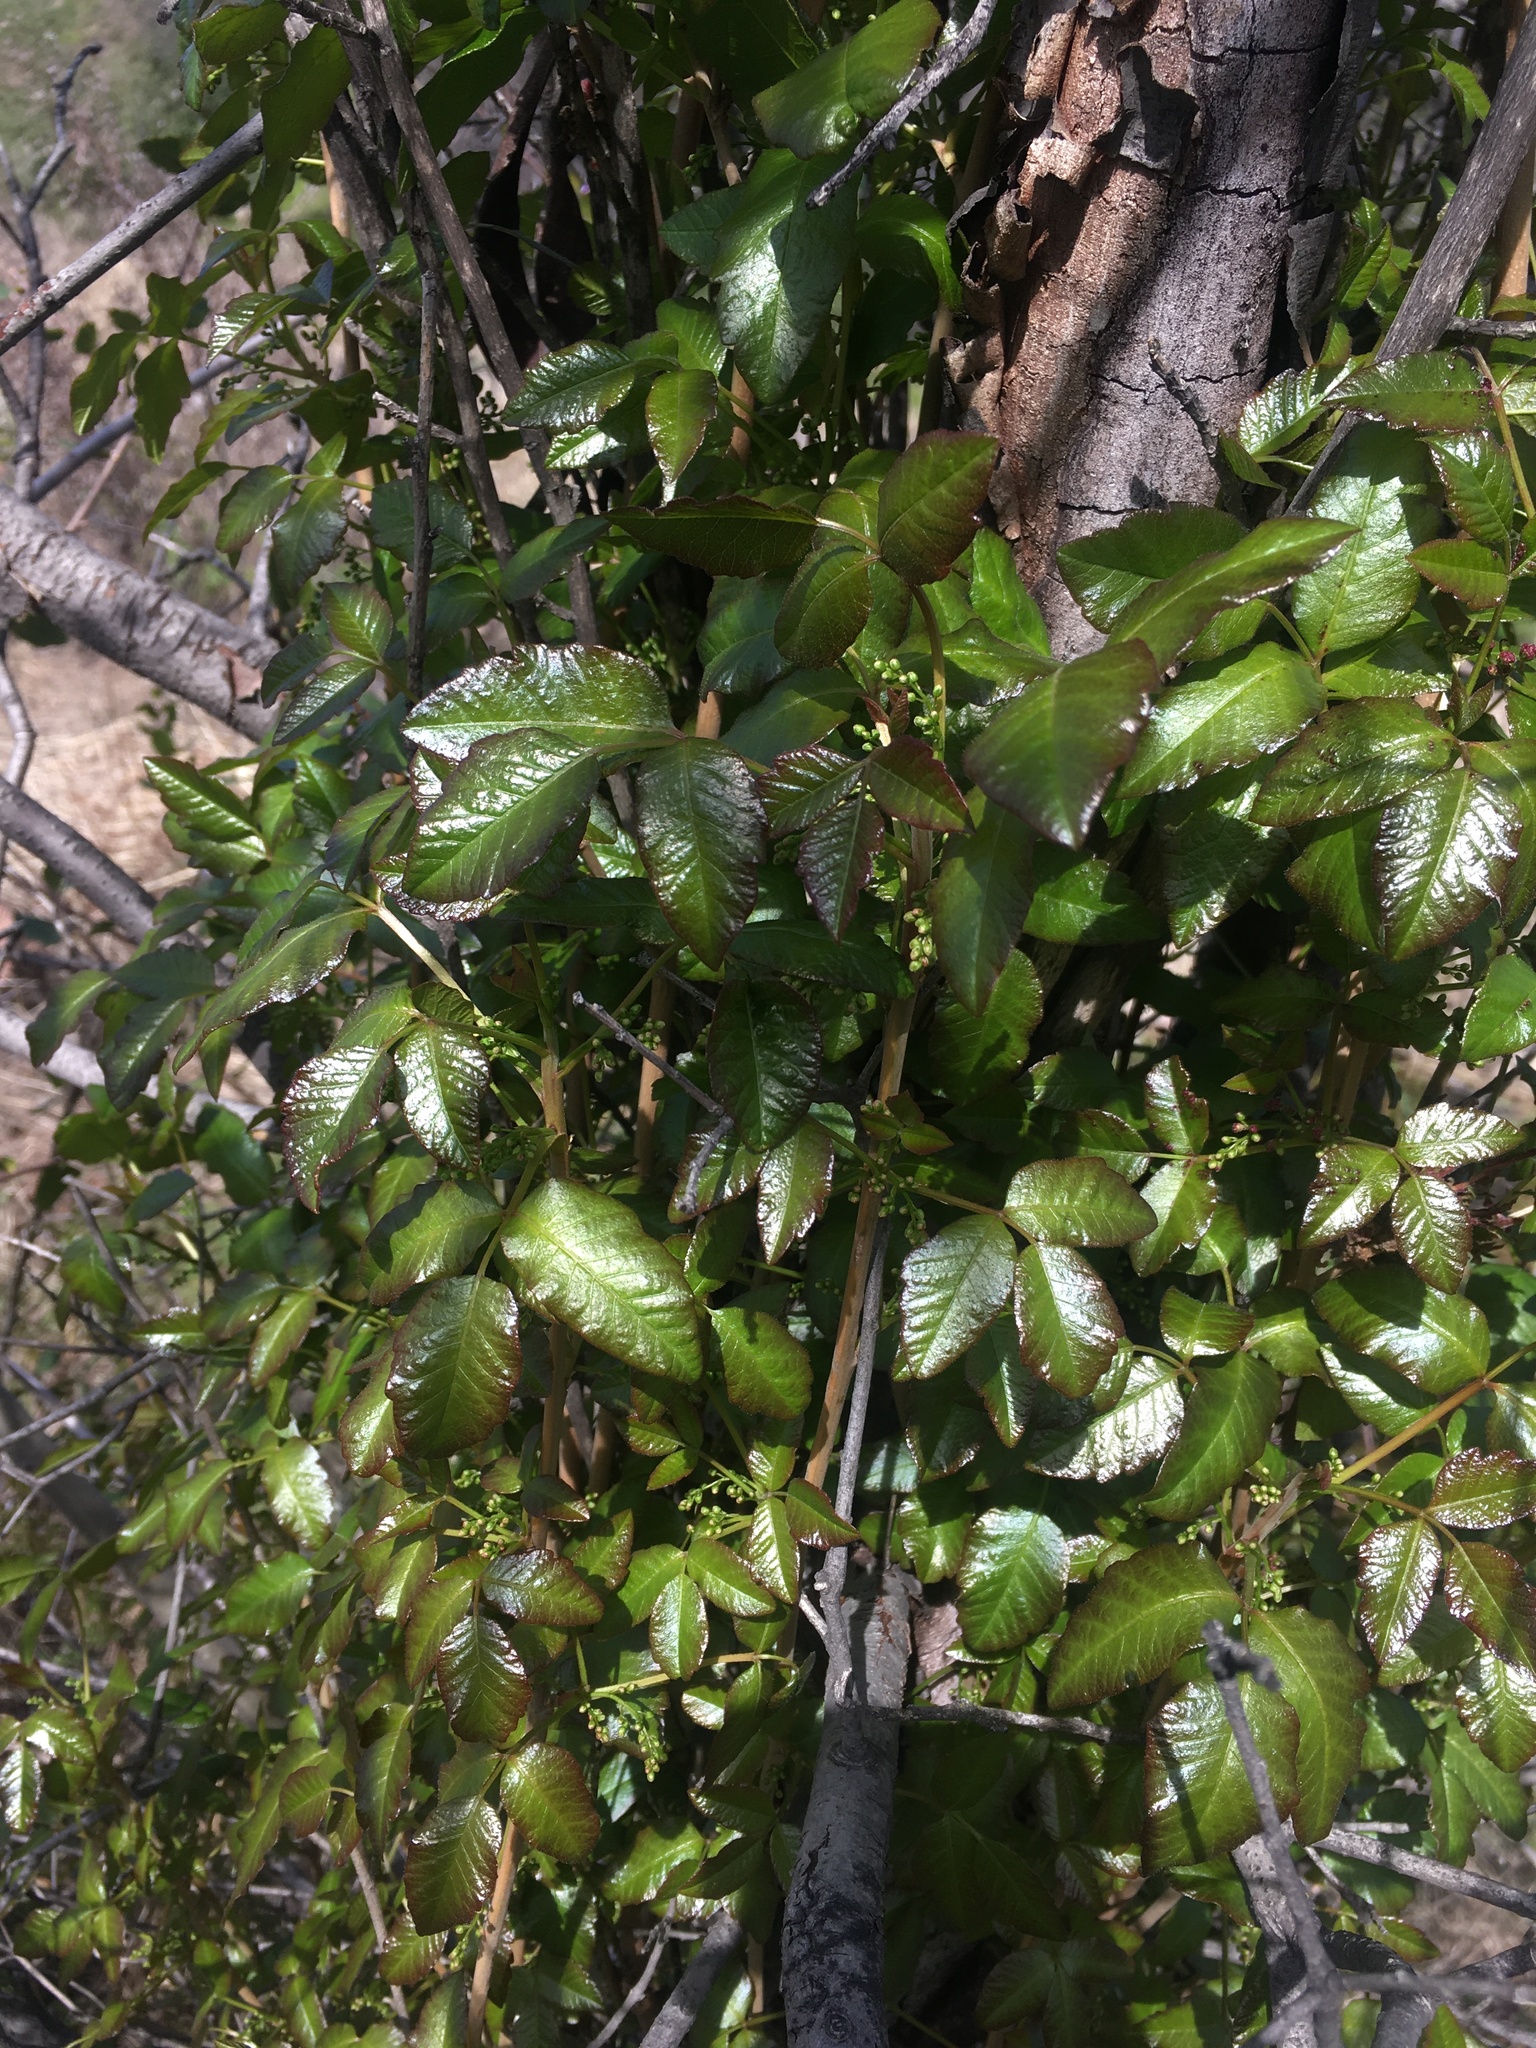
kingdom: Plantae
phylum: Tracheophyta
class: Magnoliopsida
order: Sapindales
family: Anacardiaceae
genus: Toxicodendron
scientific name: Toxicodendron diversilobum
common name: Pacific poison-oak
